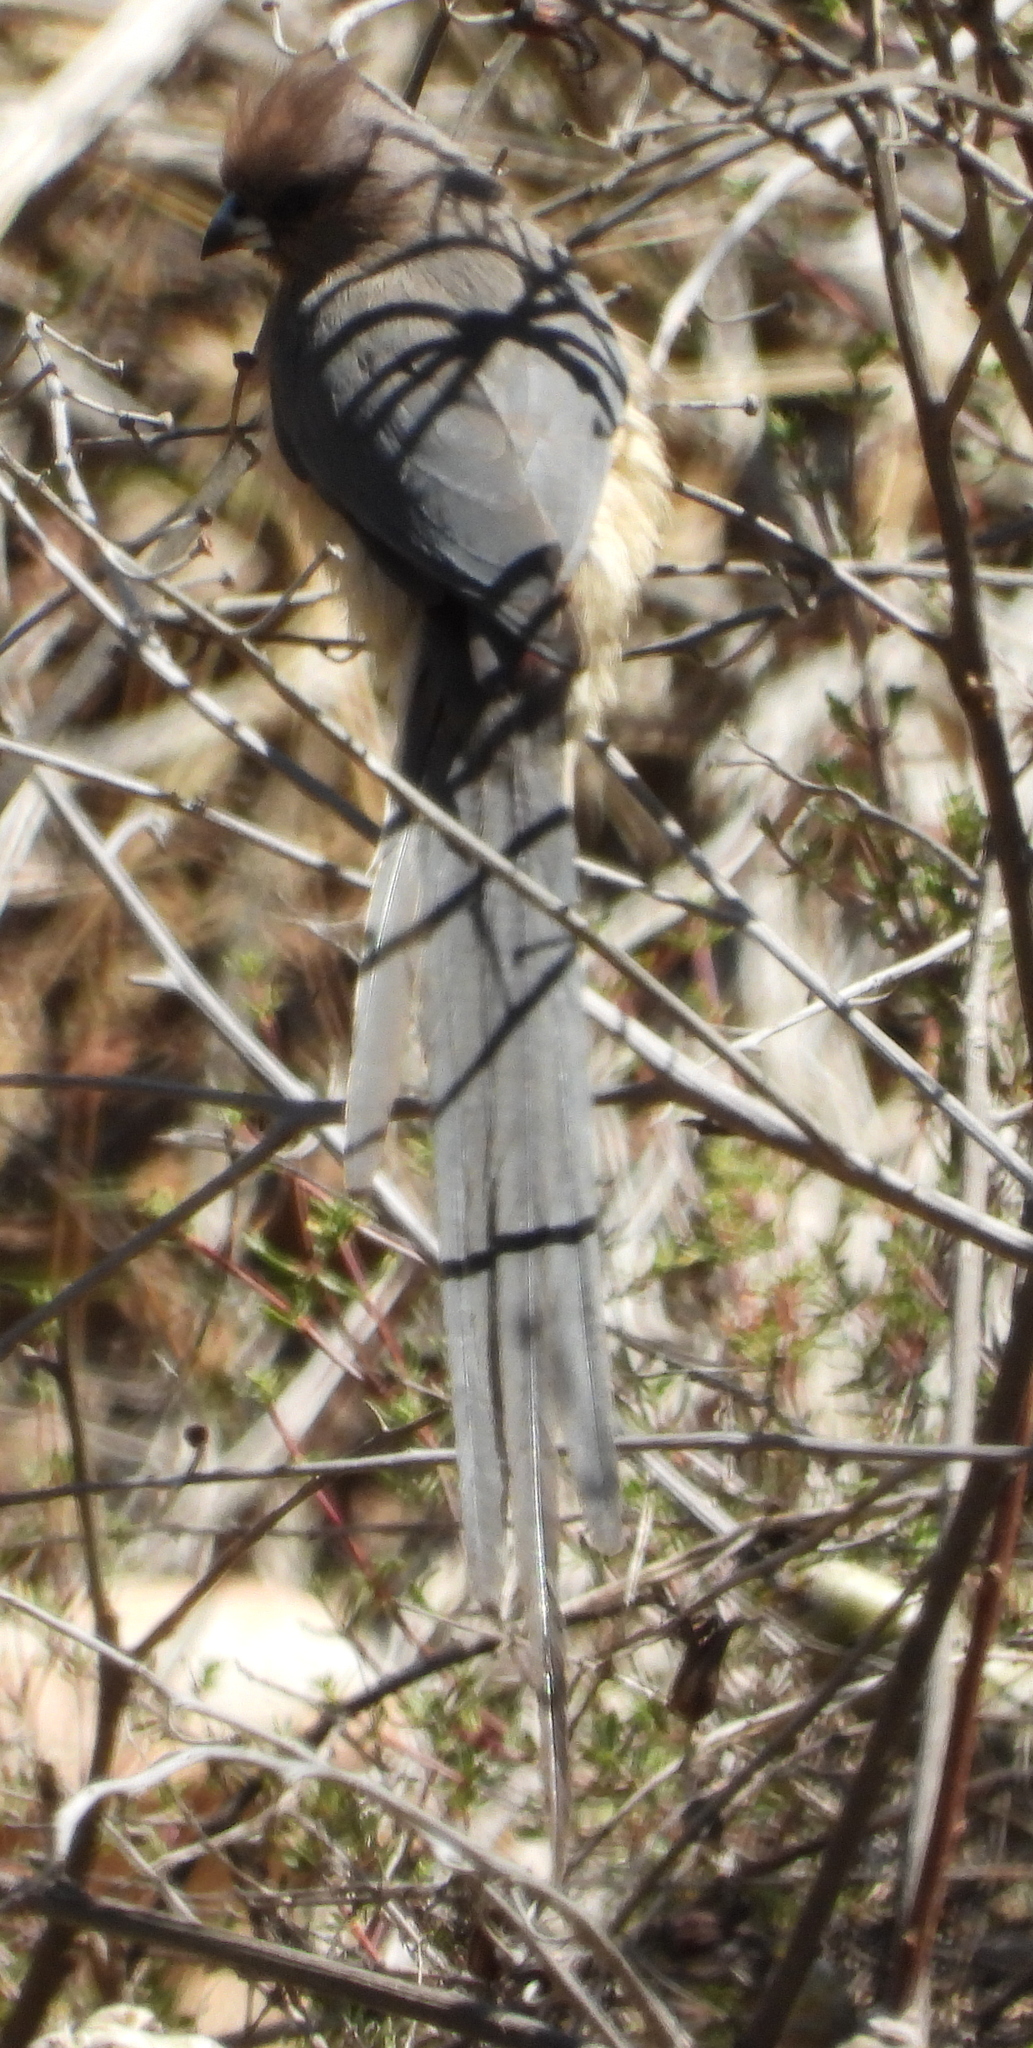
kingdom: Animalia
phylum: Chordata
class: Aves
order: Coliiformes
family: Coliidae
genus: Colius
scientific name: Colius colius
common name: White-backed mousebird
